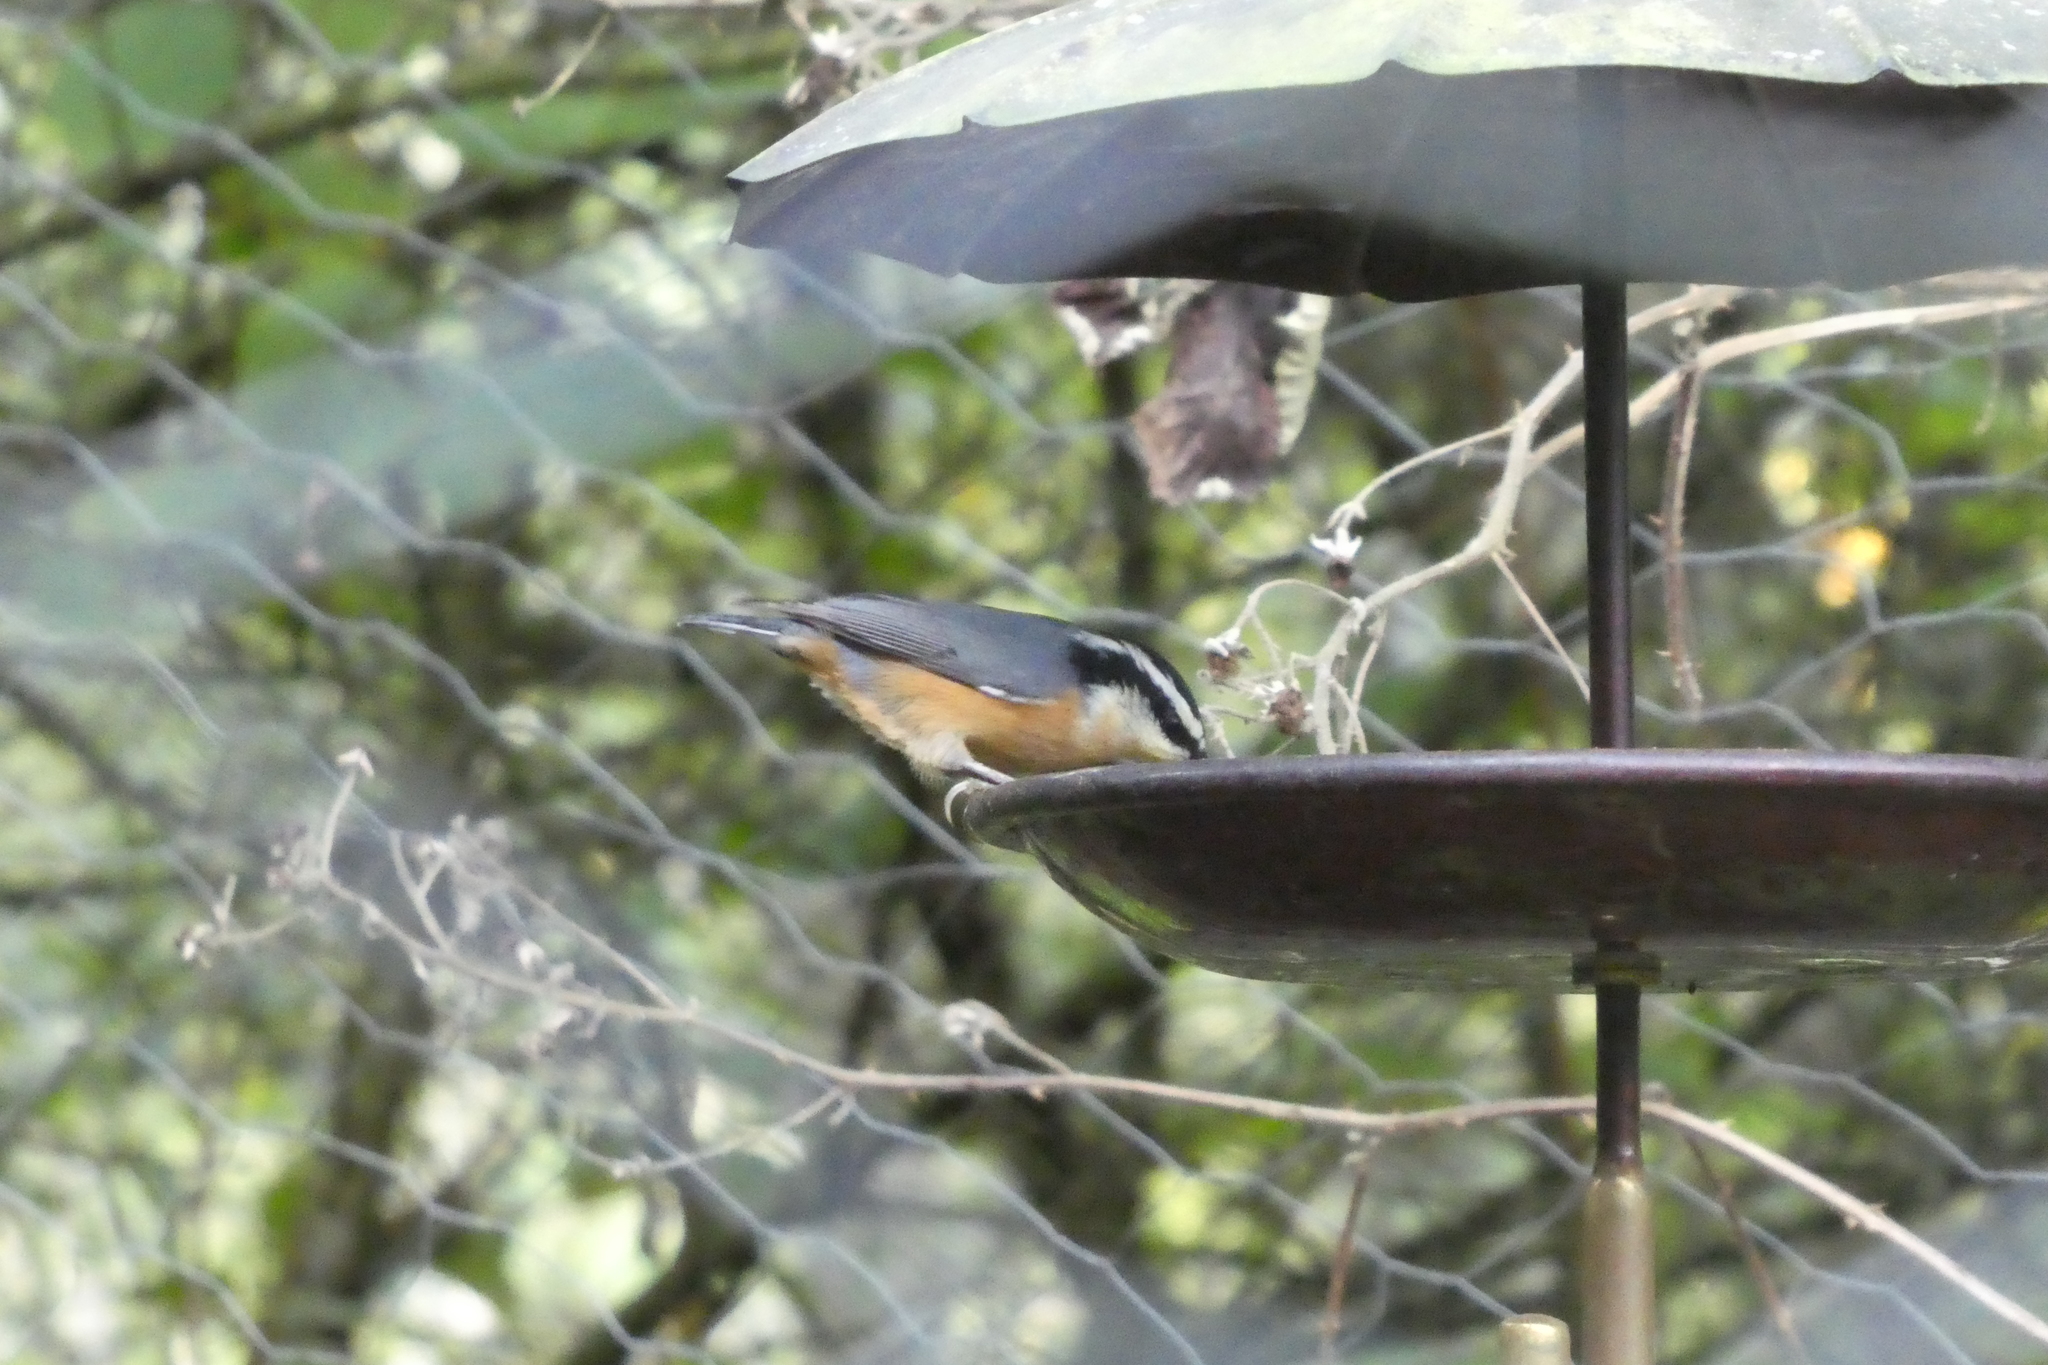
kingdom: Animalia
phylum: Chordata
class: Aves
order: Passeriformes
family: Sittidae
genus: Sitta
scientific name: Sitta canadensis
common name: Red-breasted nuthatch
